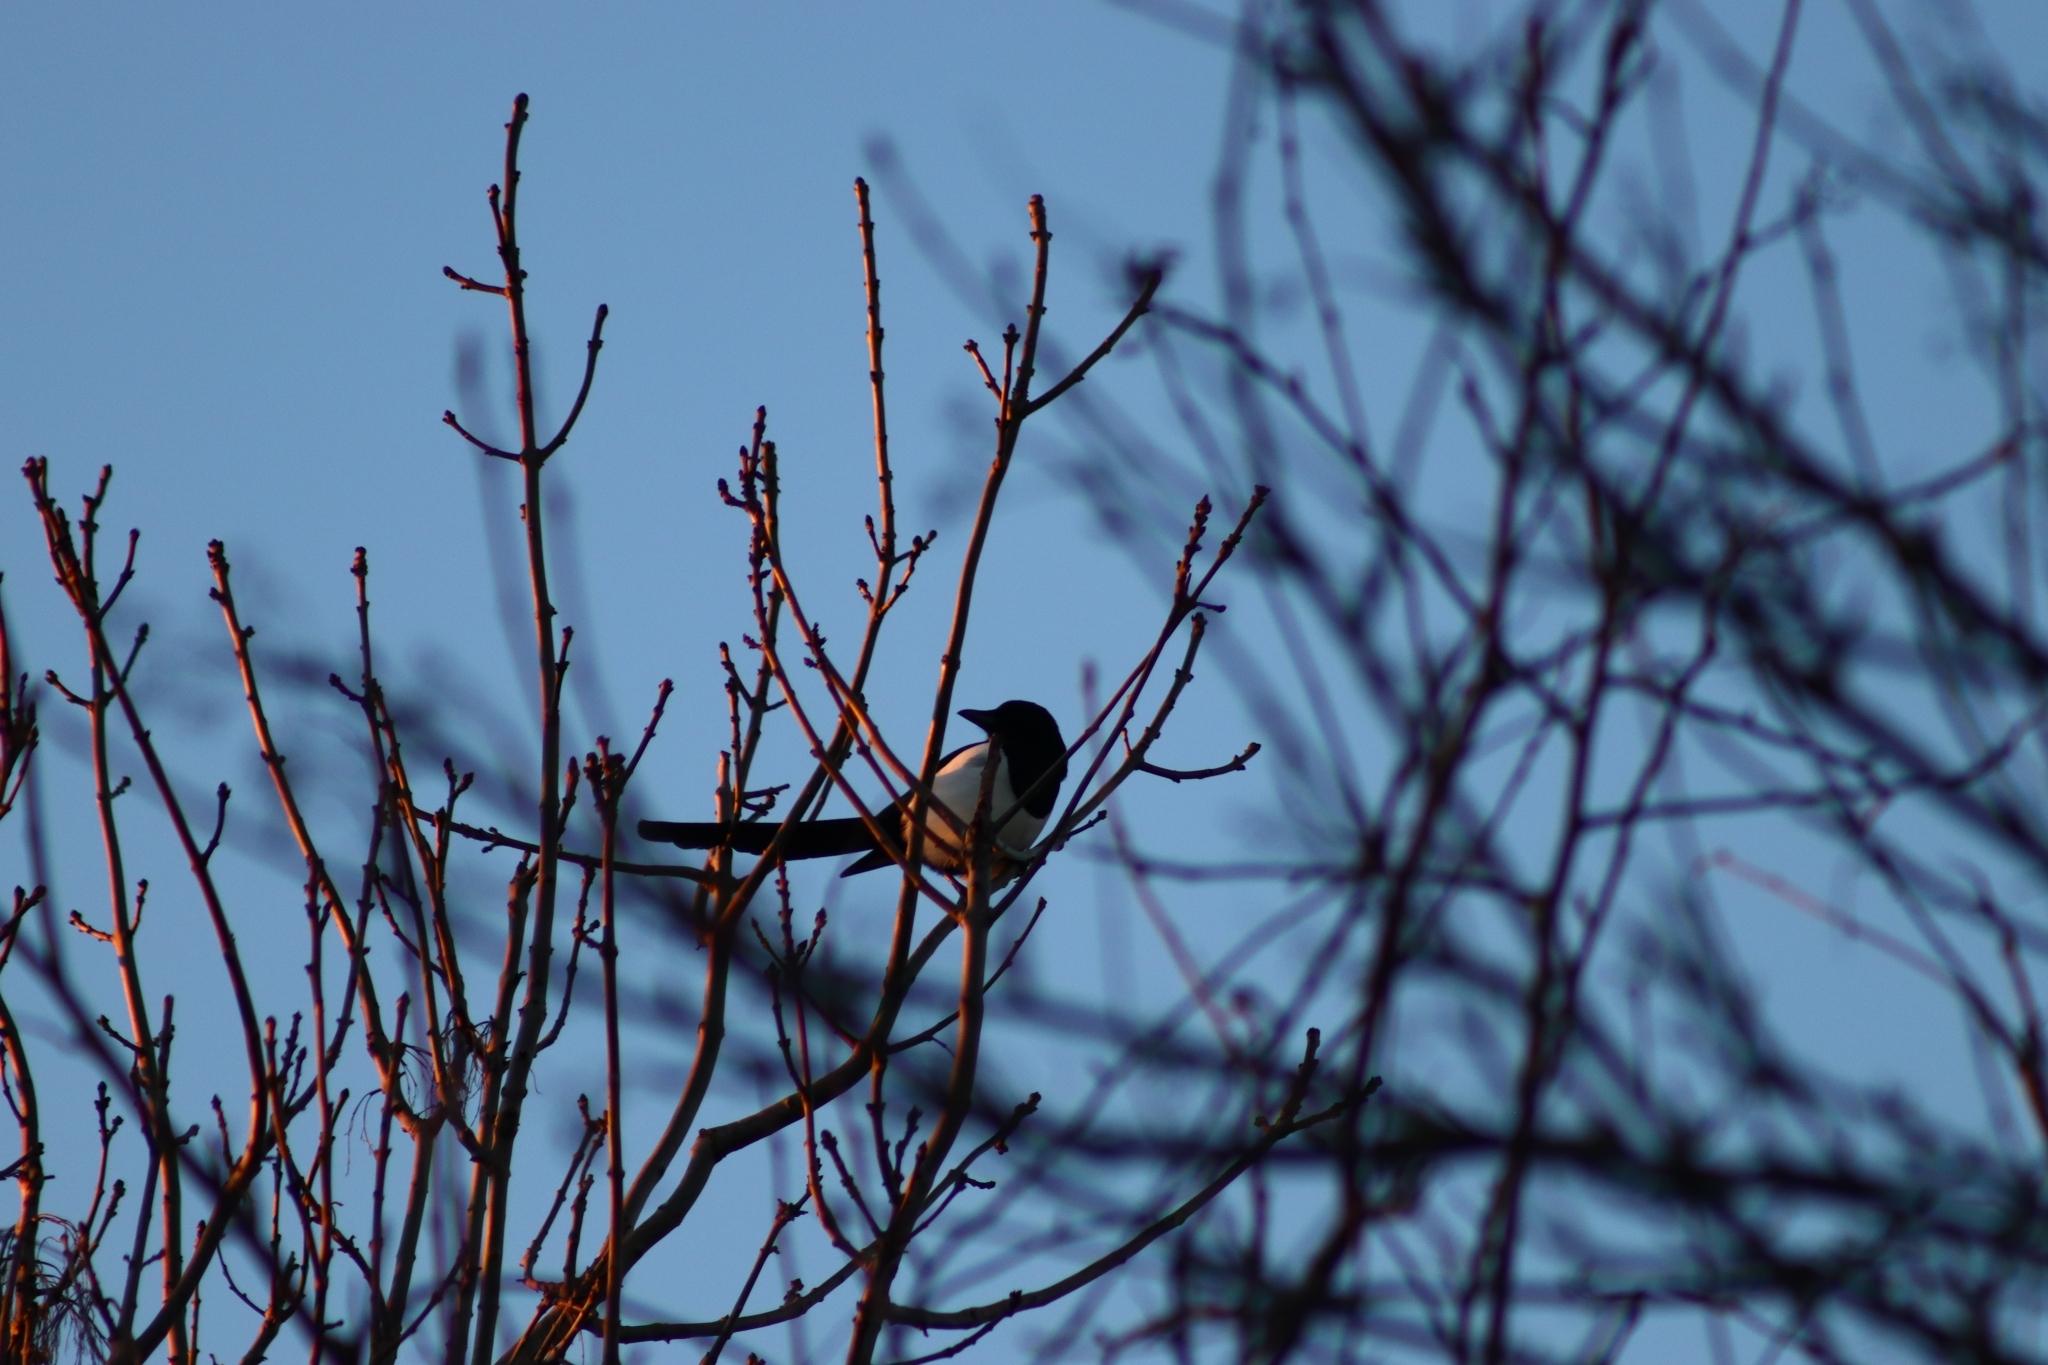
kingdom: Animalia
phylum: Chordata
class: Aves
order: Passeriformes
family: Corvidae
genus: Pica
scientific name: Pica pica
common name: Eurasian magpie
